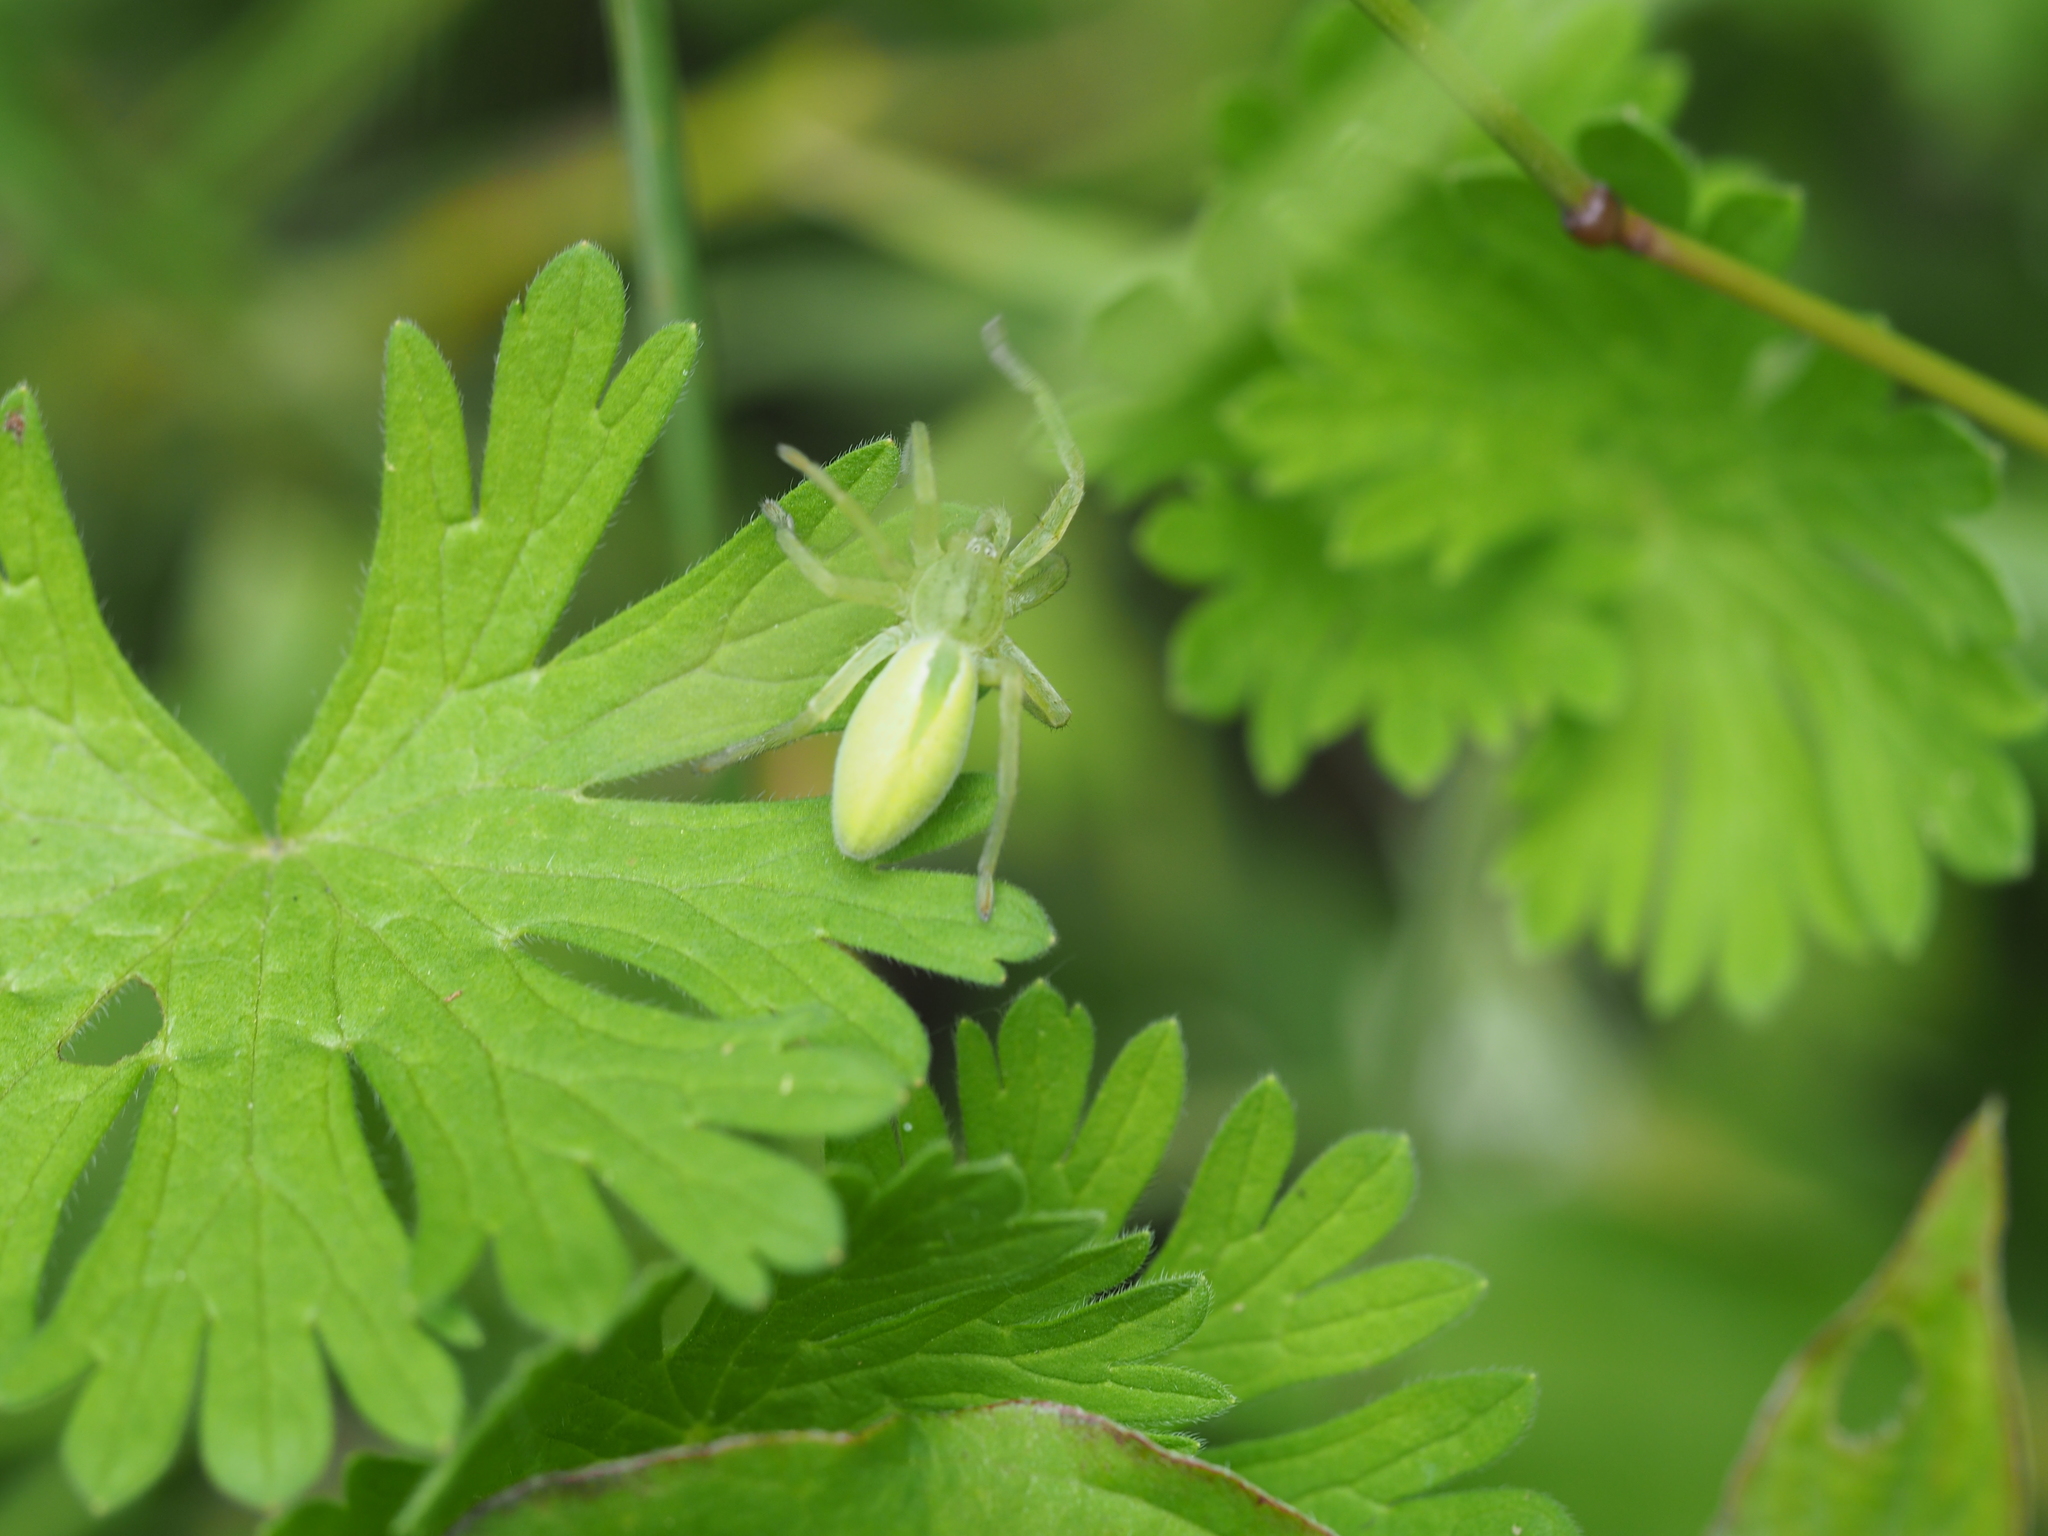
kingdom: Animalia
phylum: Arthropoda
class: Arachnida
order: Araneae
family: Sparassidae
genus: Micrommata
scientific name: Micrommata virescens
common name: Green spider
